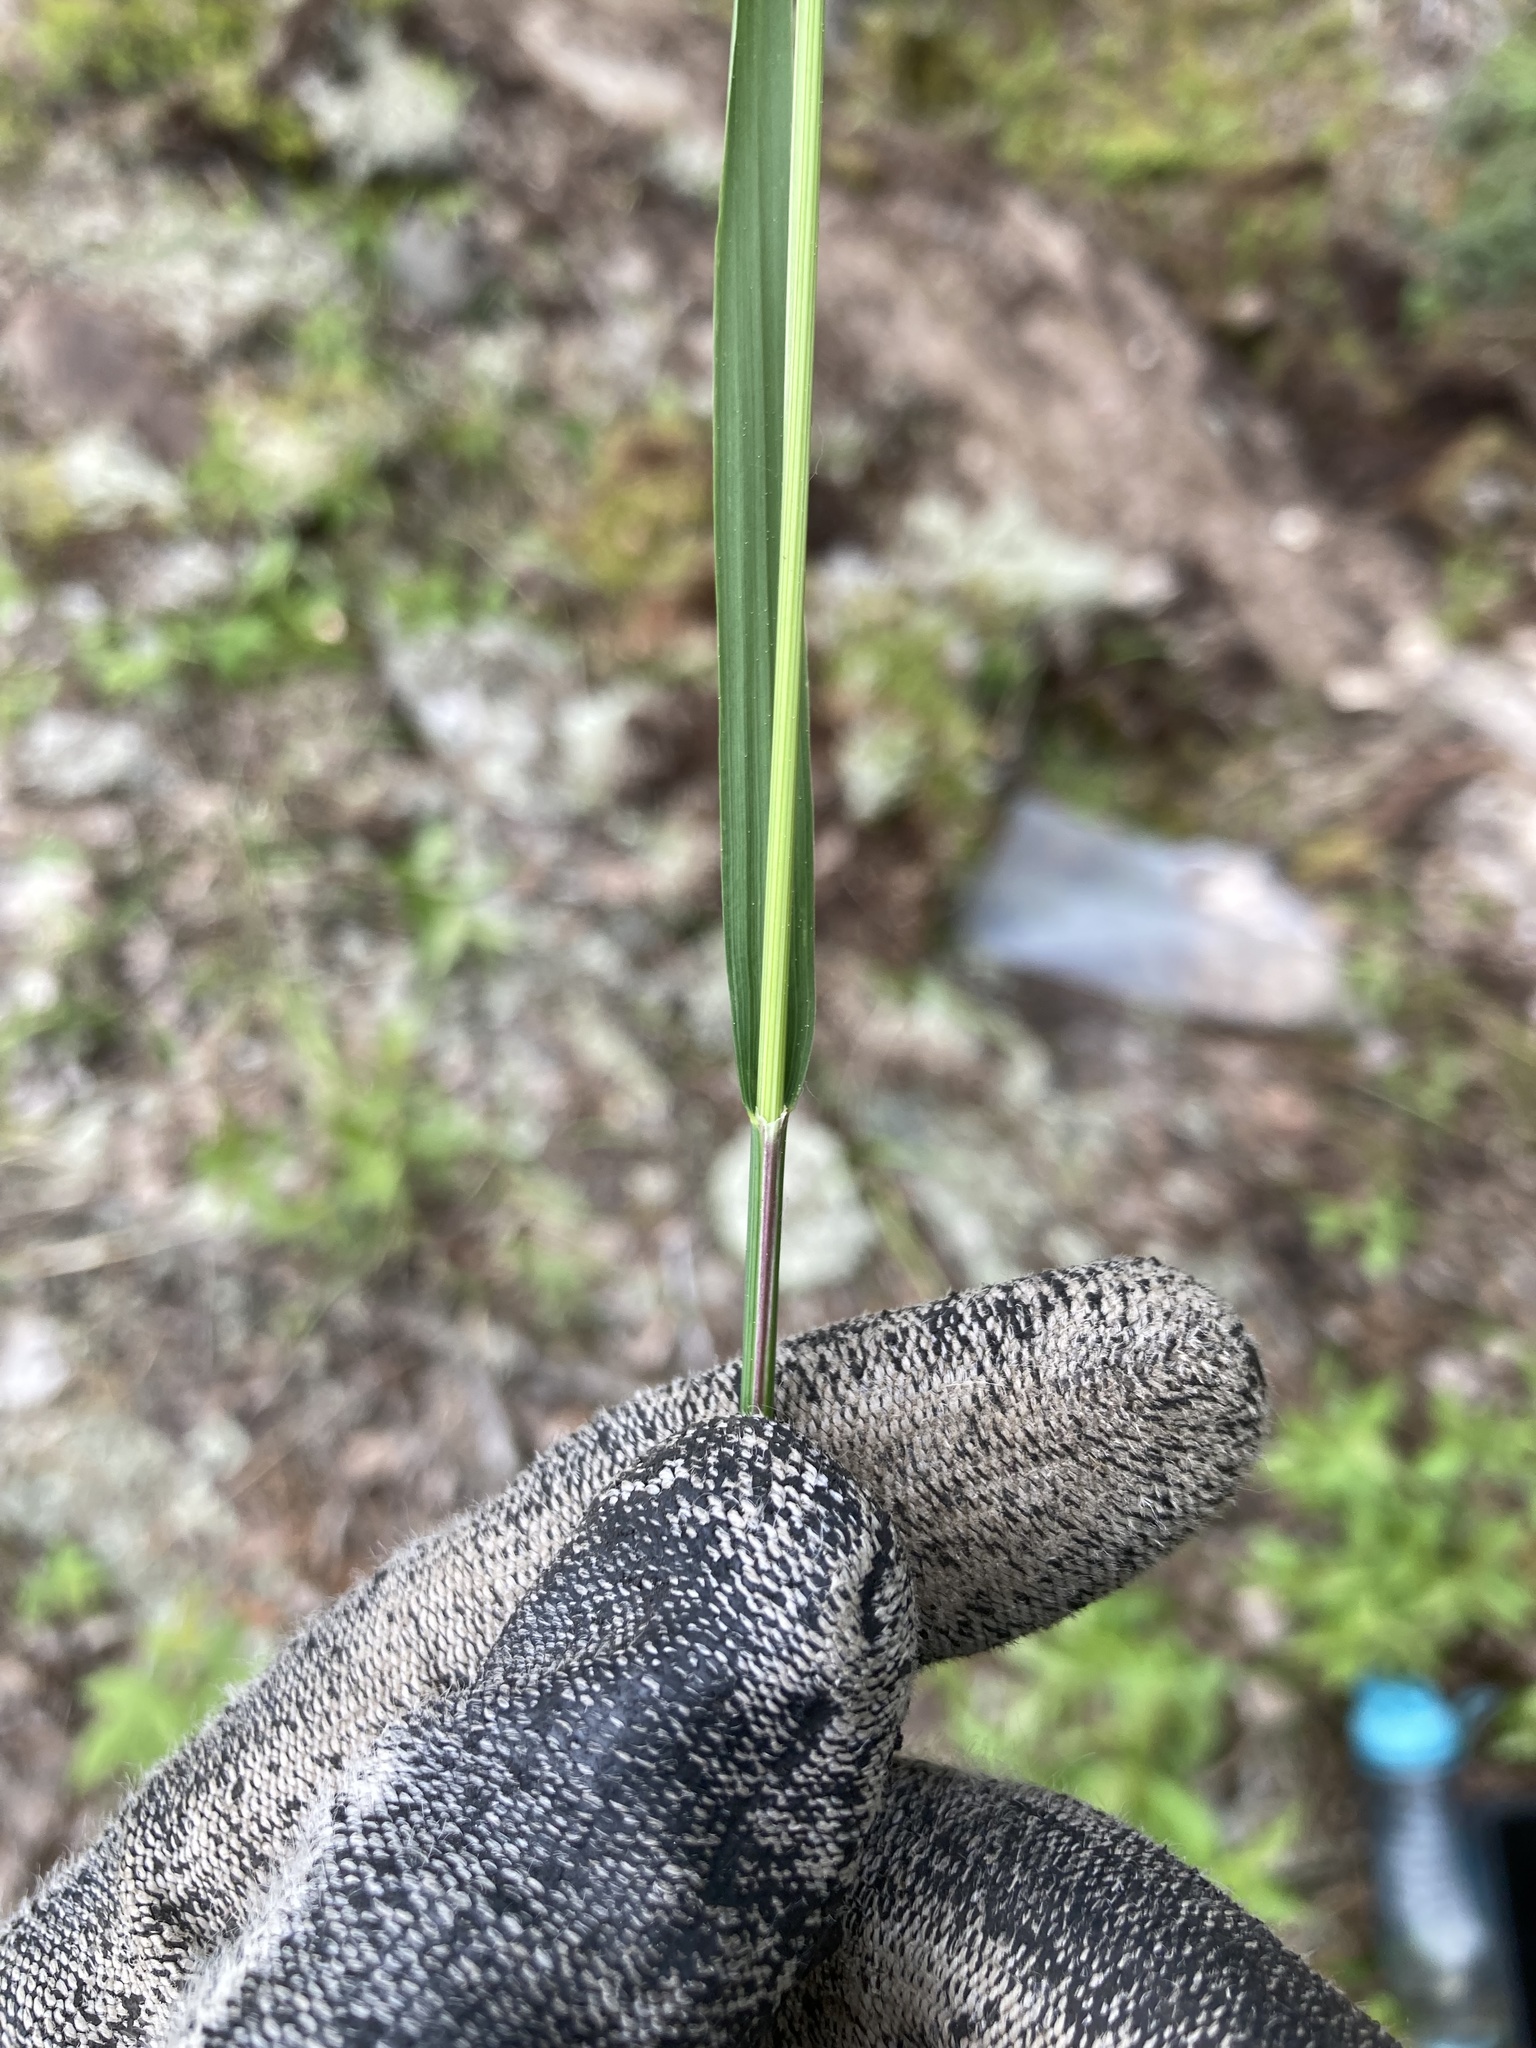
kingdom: Plantae
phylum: Tracheophyta
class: Liliopsida
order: Poales
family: Poaceae
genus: Schizachne
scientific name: Schizachne purpurascens
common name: False melic
